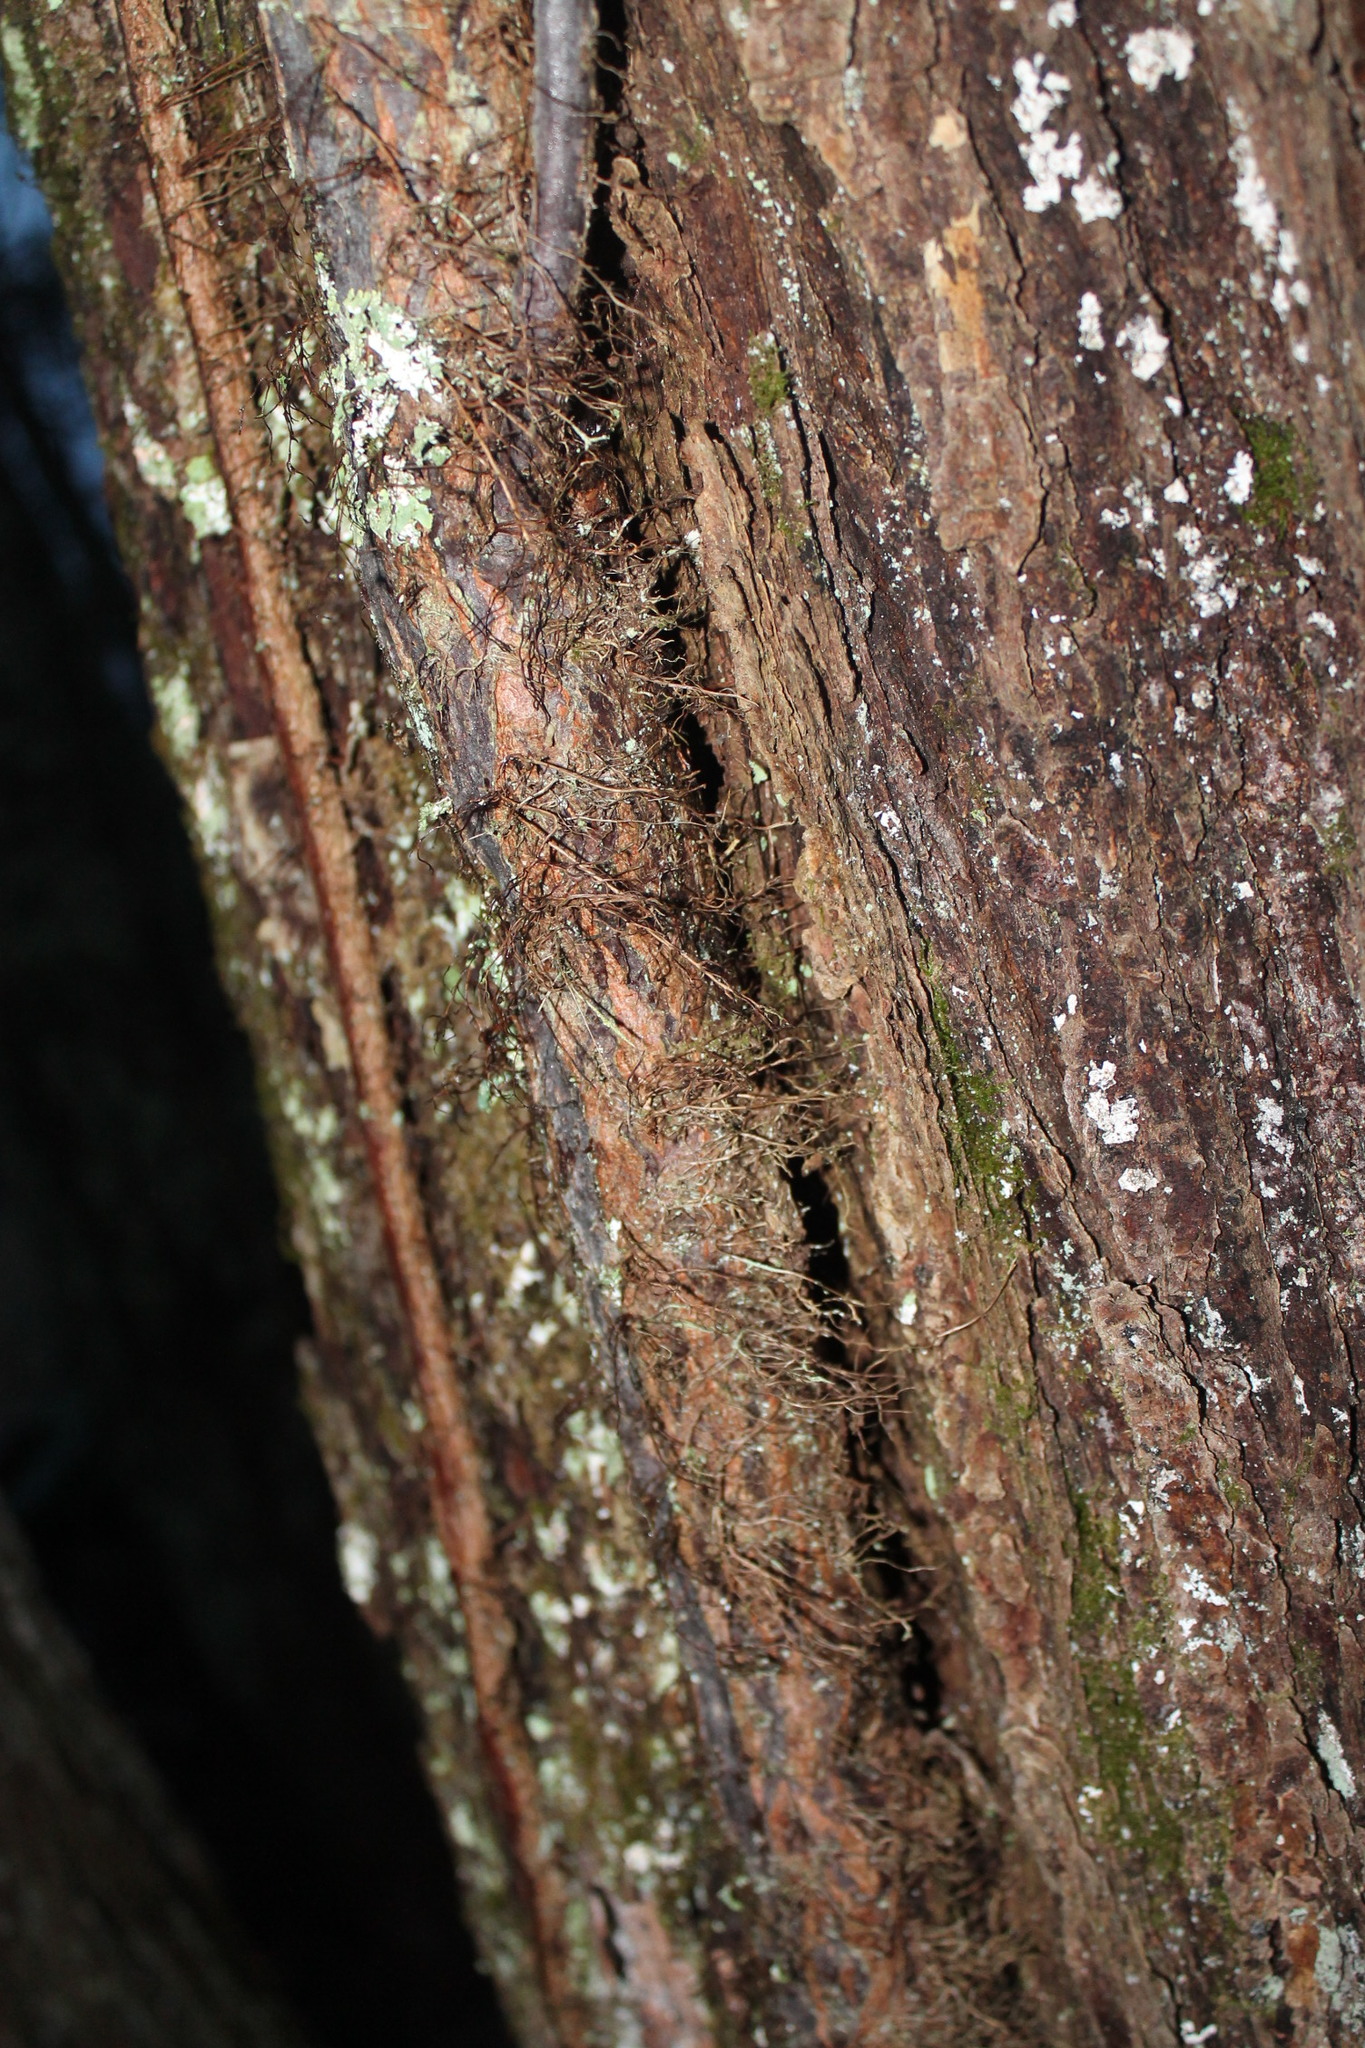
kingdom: Plantae
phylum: Tracheophyta
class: Magnoliopsida
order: Sapindales
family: Anacardiaceae
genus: Toxicodendron
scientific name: Toxicodendron radicans
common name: Poison ivy
